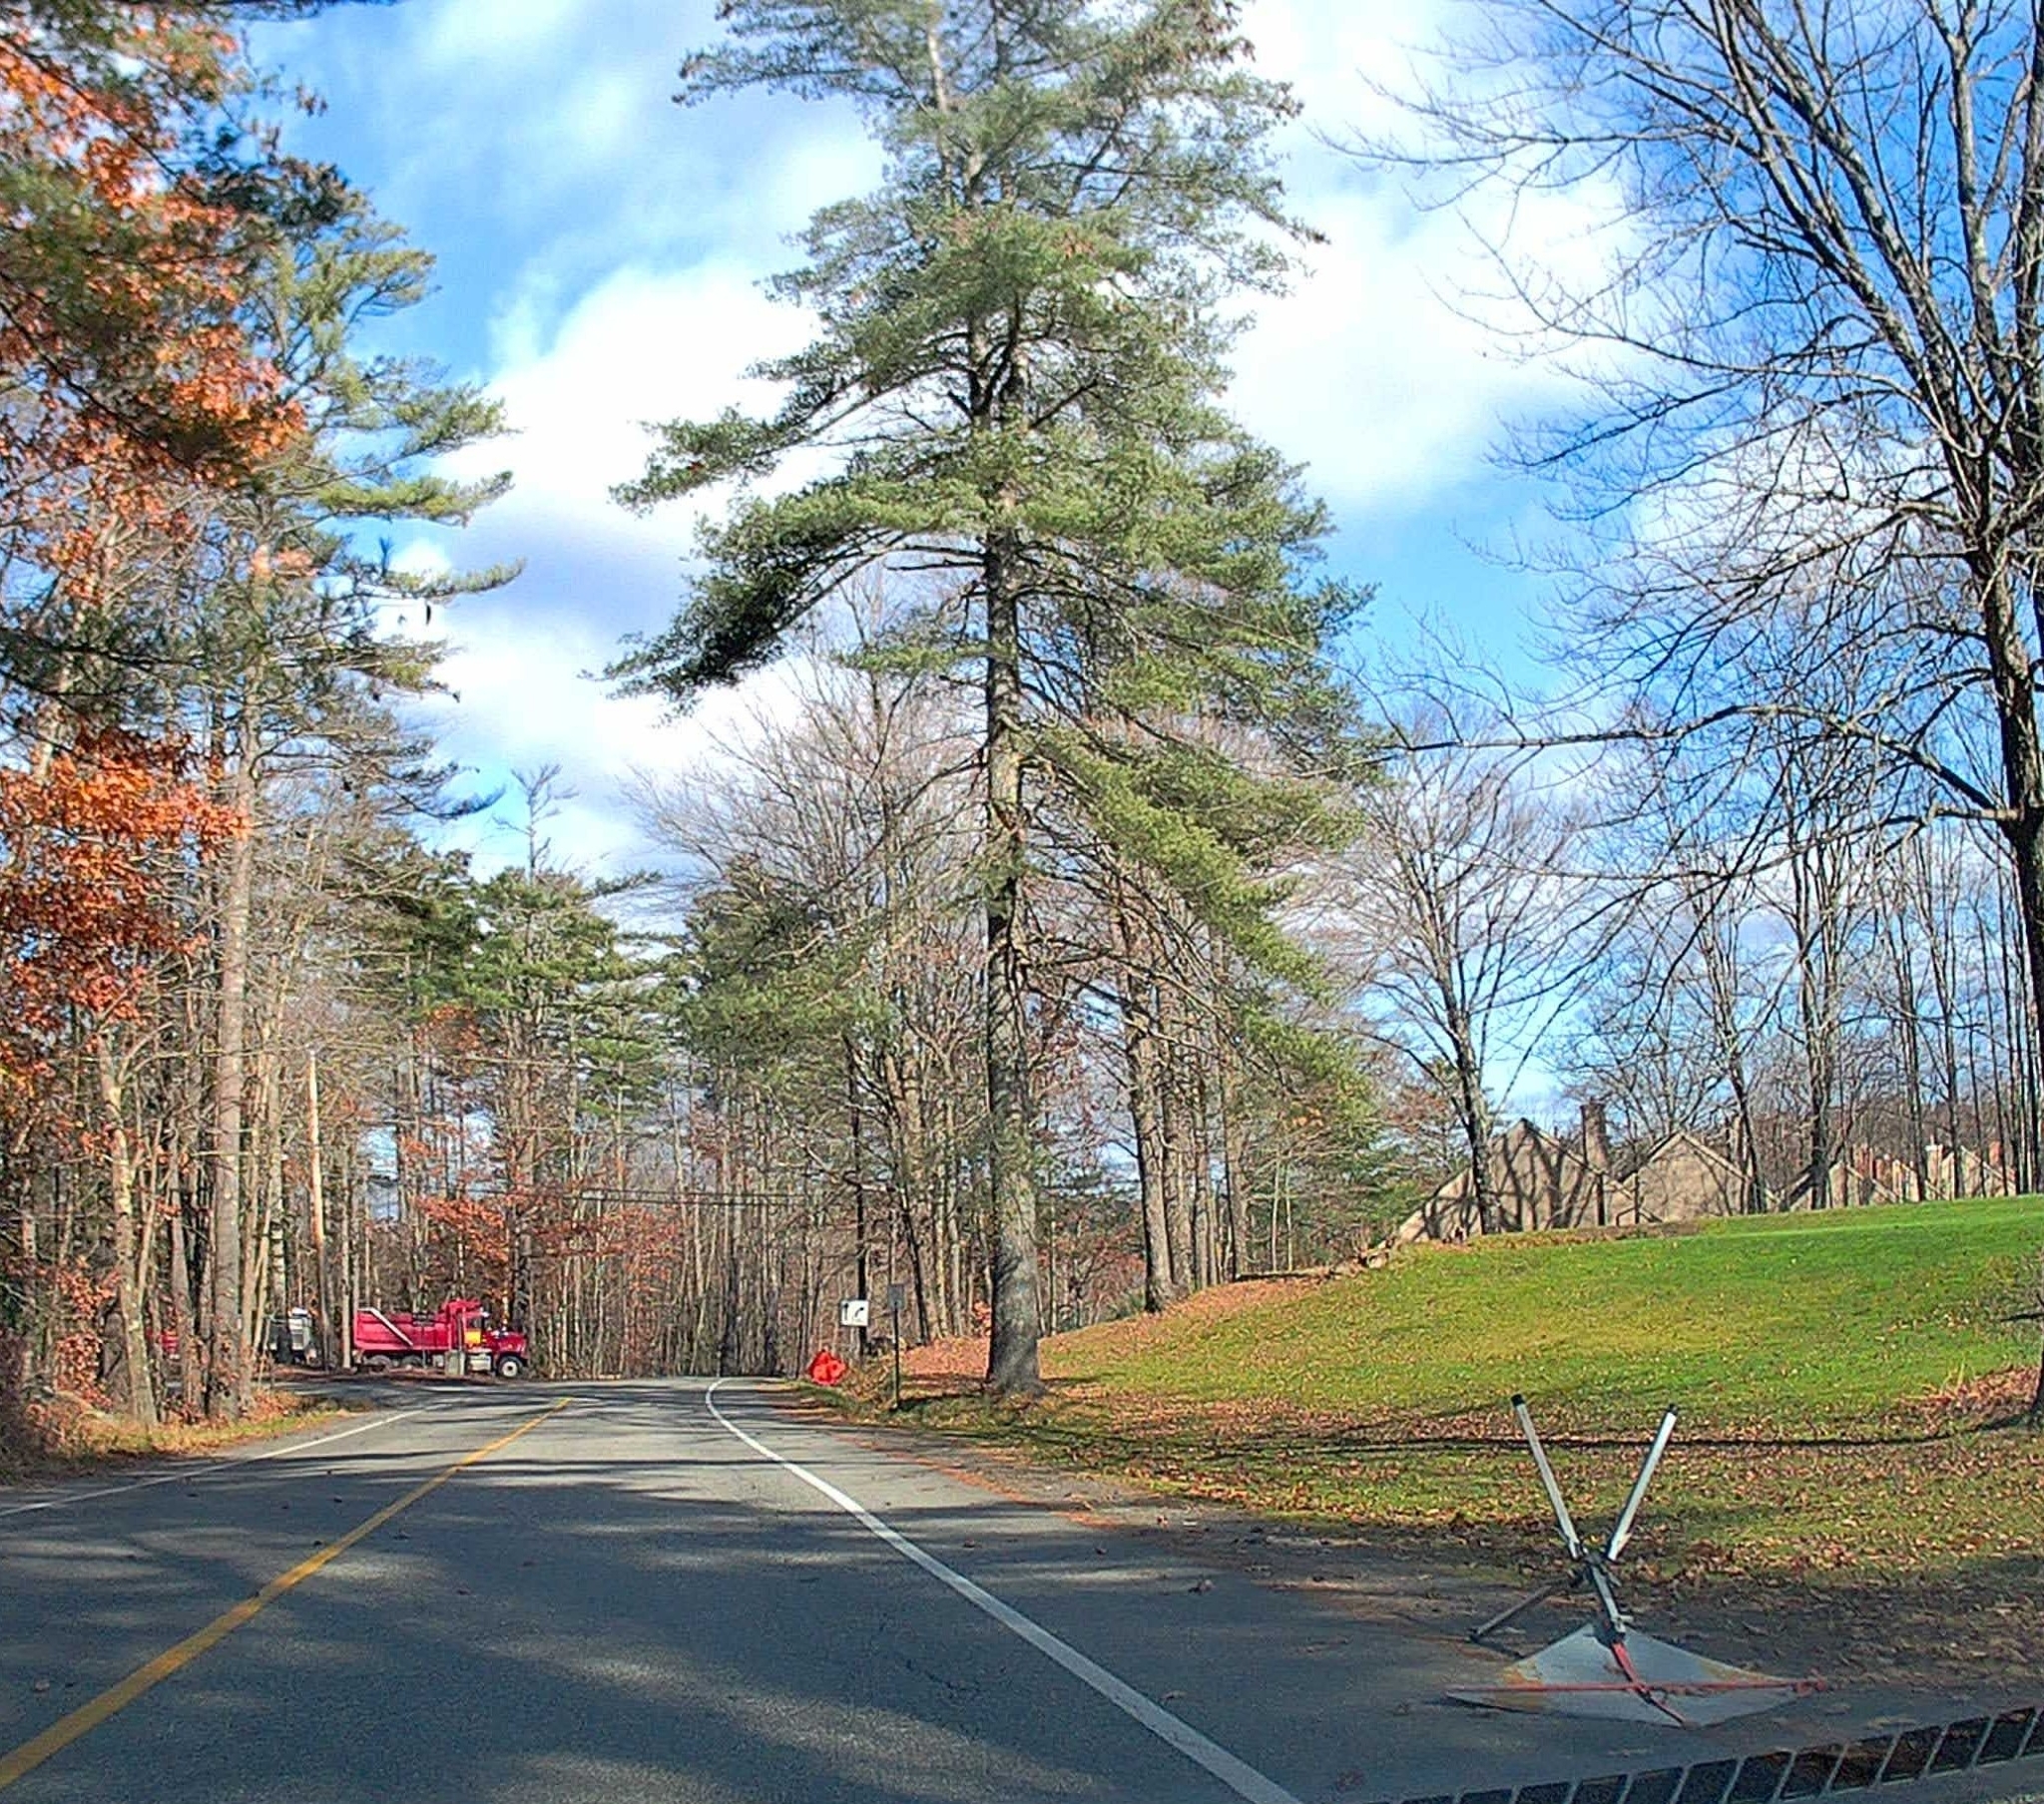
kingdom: Plantae
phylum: Tracheophyta
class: Pinopsida
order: Pinales
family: Pinaceae
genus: Pinus
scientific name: Pinus strobus
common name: Weymouth pine
